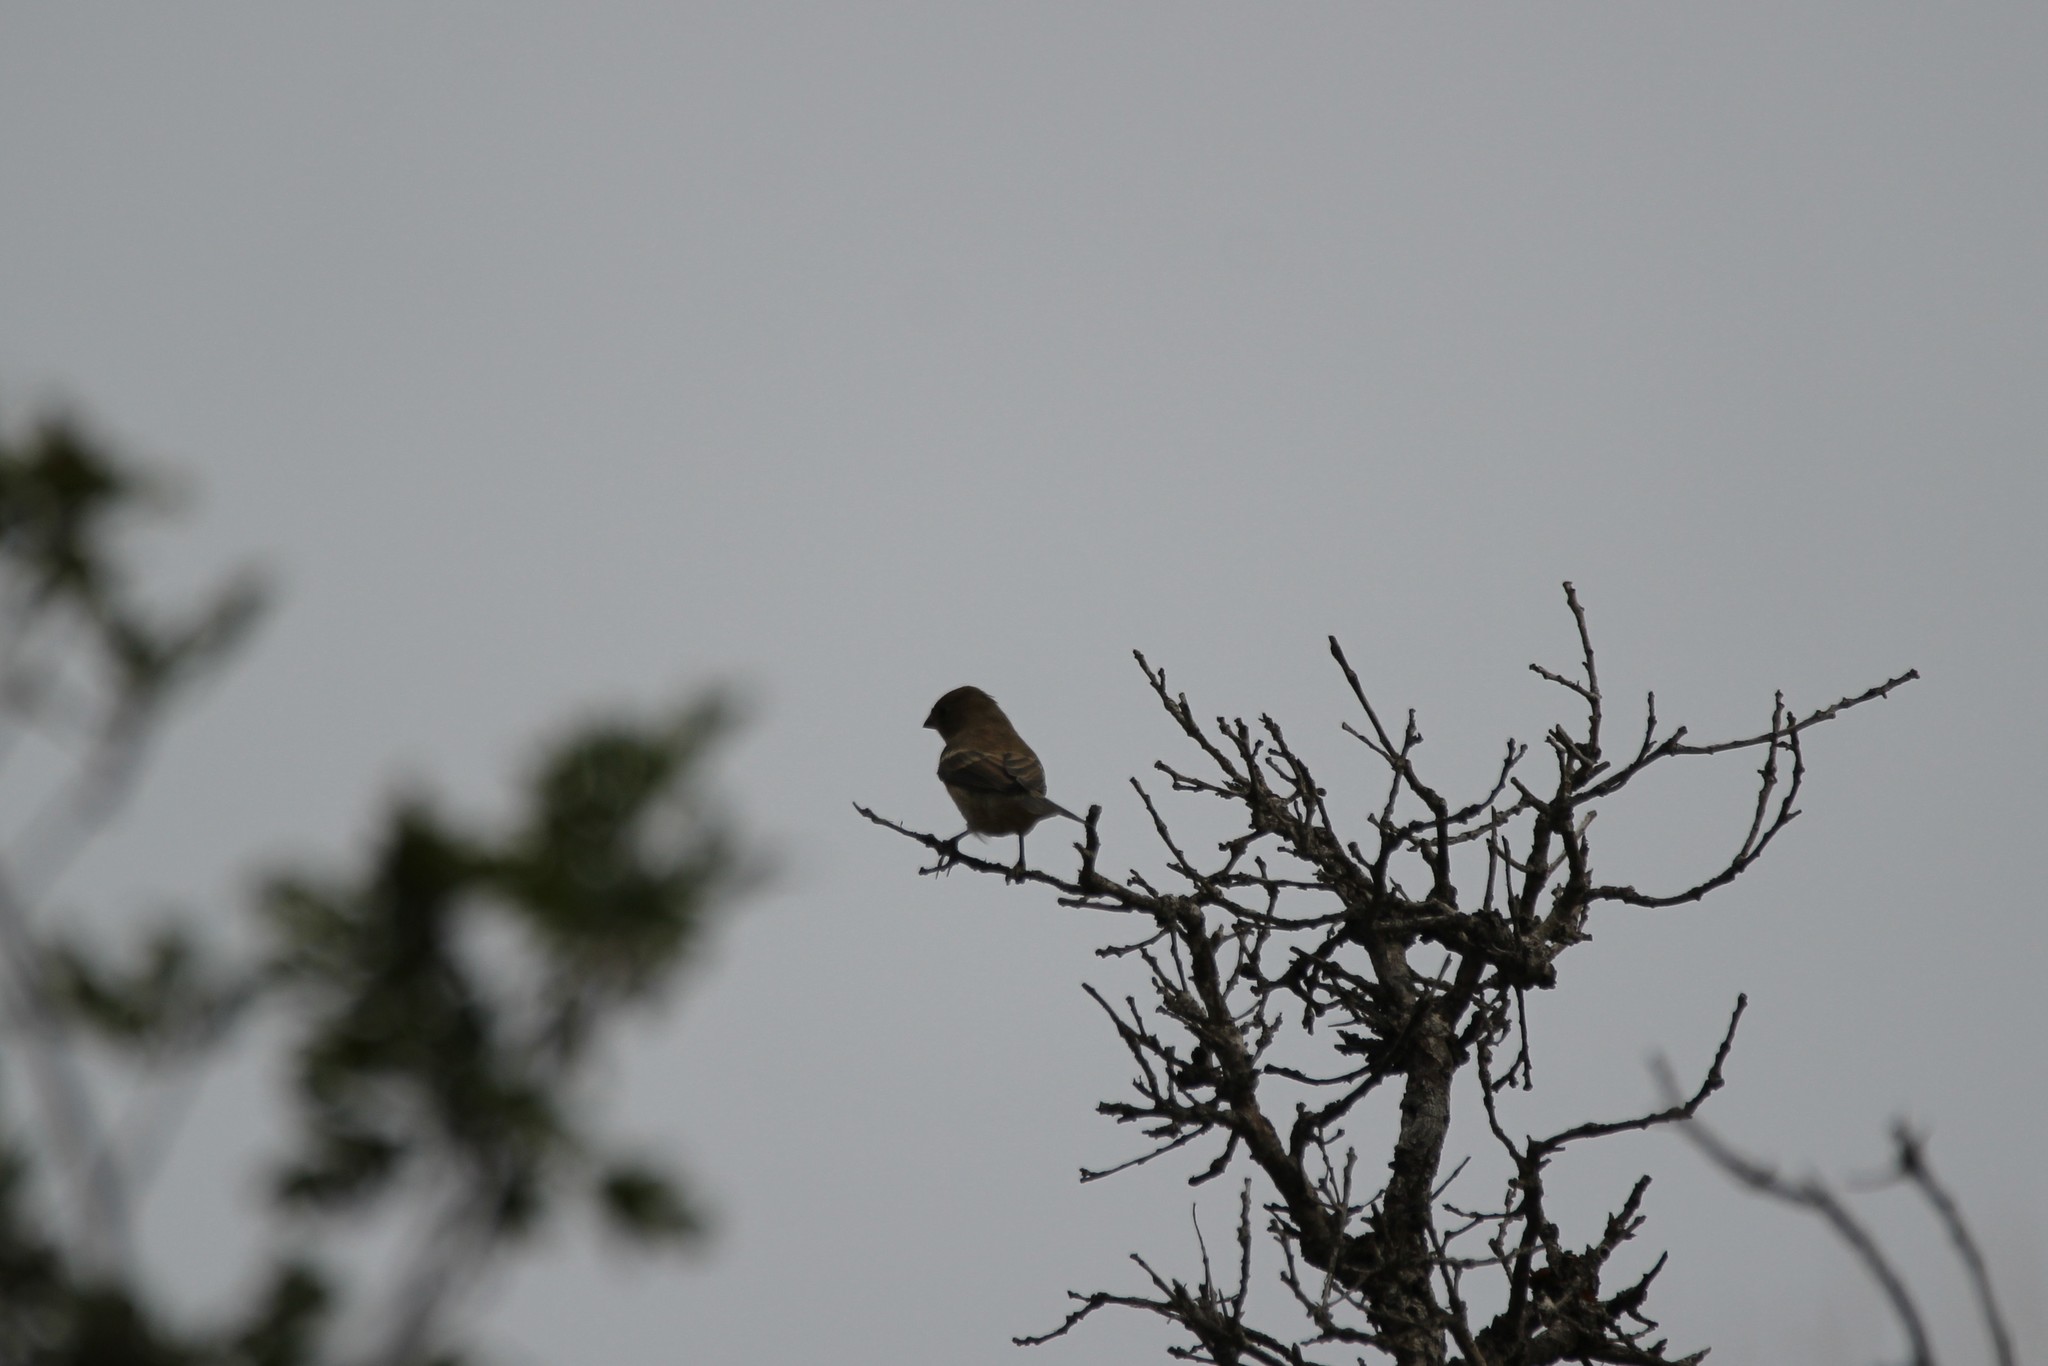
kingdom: Animalia
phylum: Chordata
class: Aves
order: Passeriformes
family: Cardinalidae
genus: Passerina
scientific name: Passerina amoena
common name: Lazuli bunting
